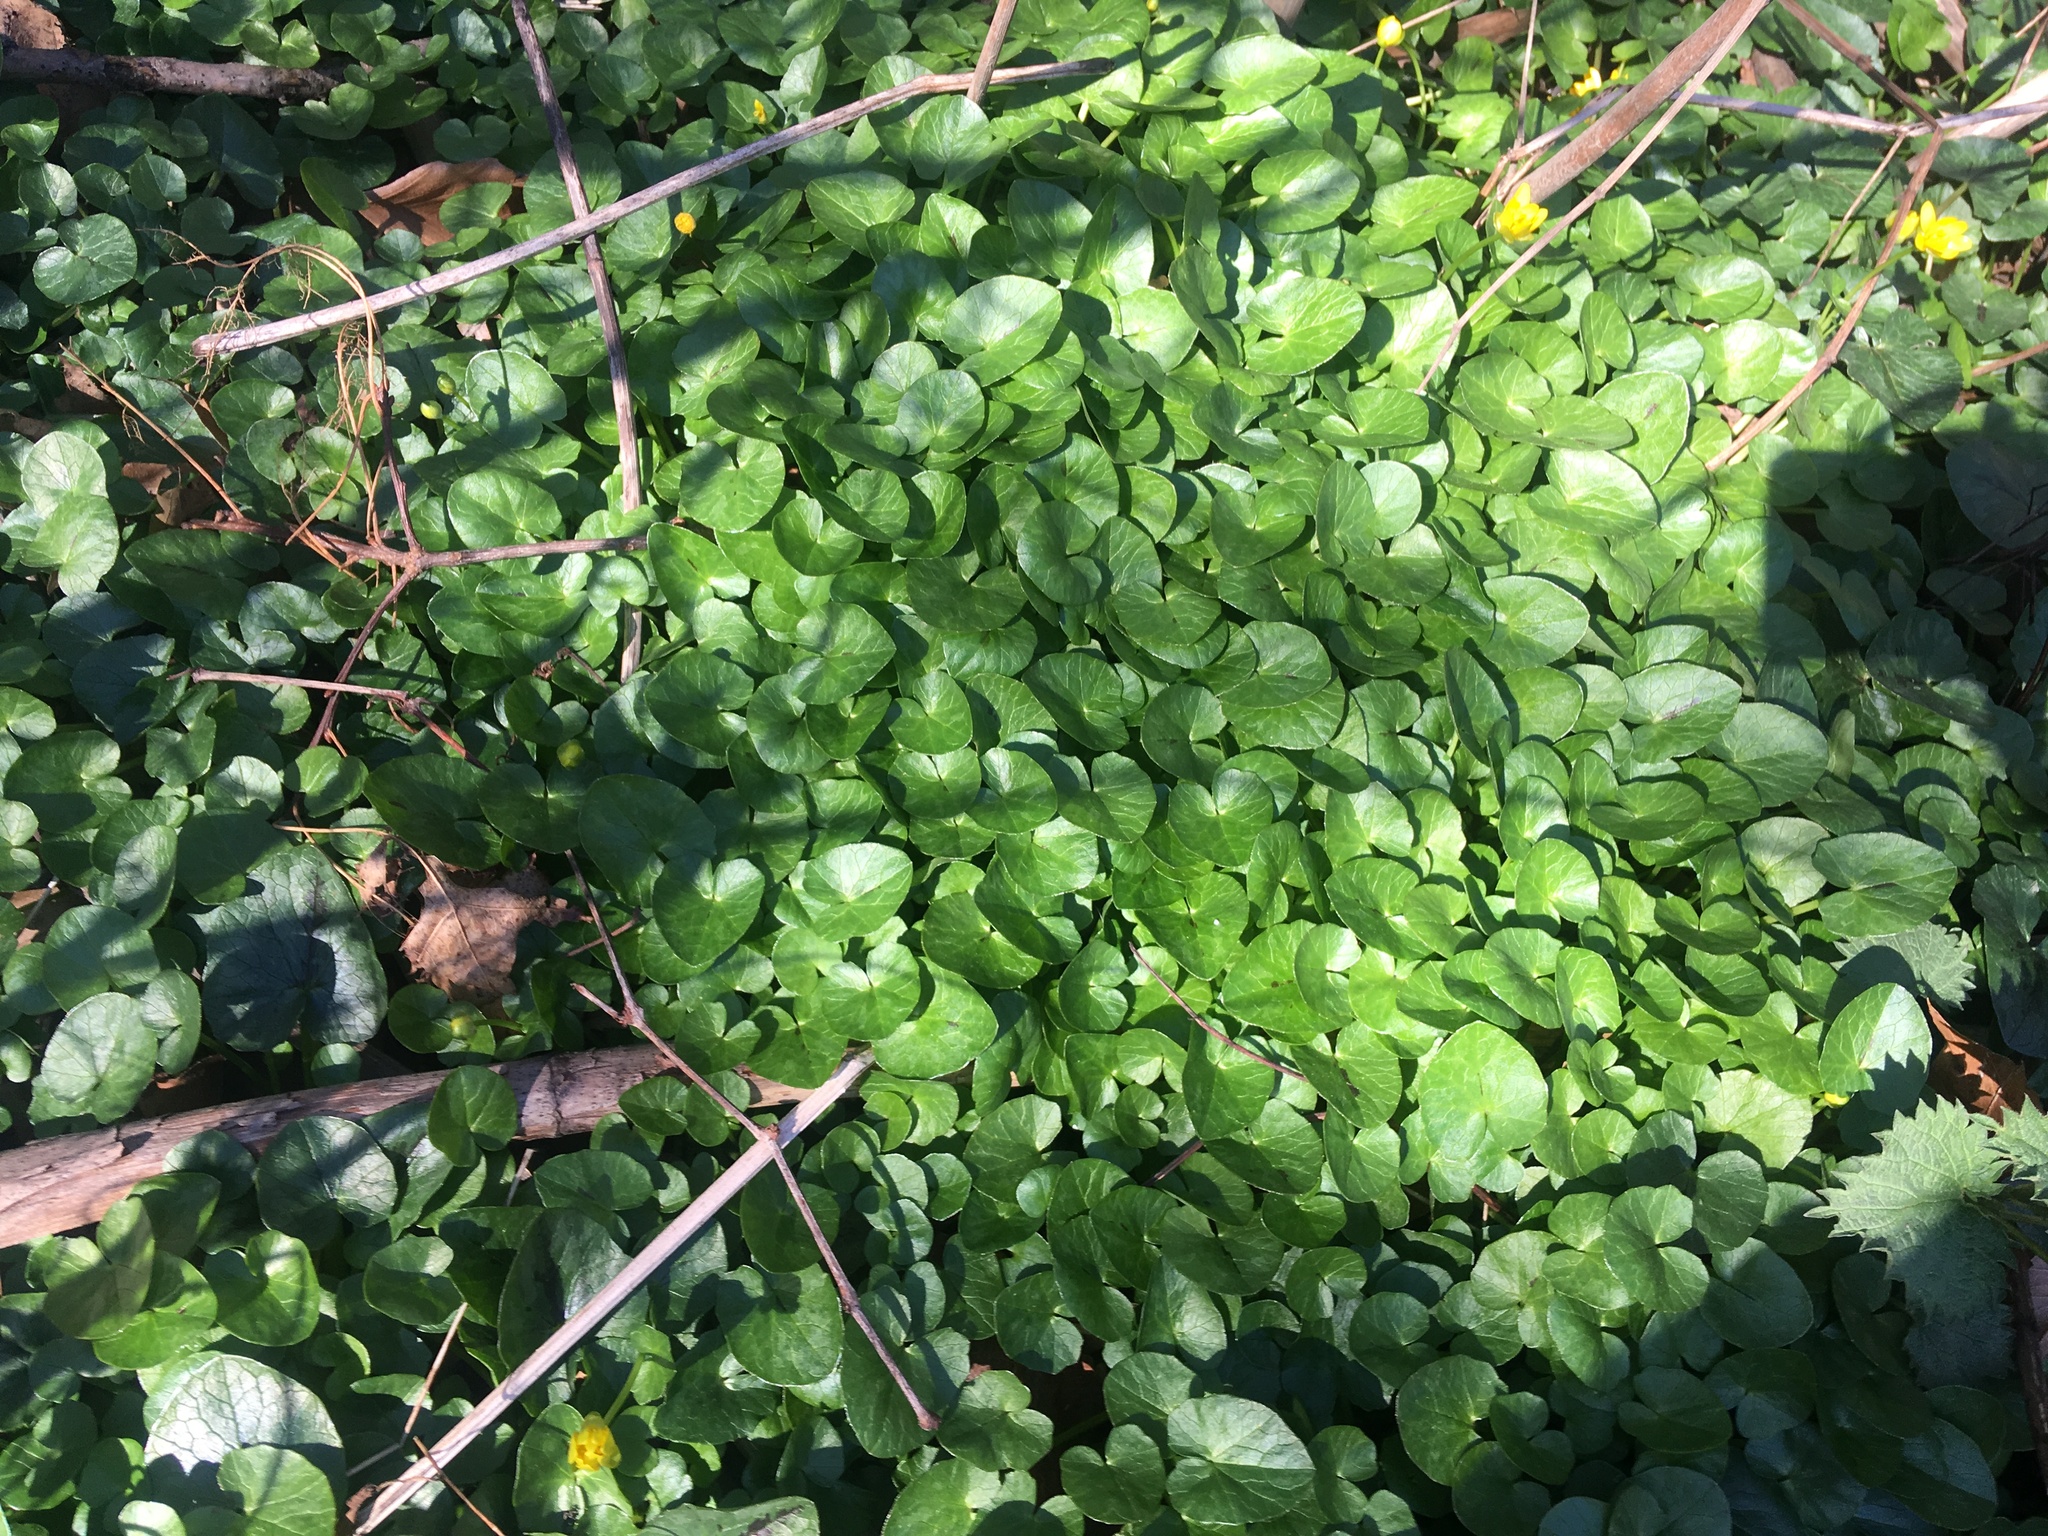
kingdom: Plantae
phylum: Tracheophyta
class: Magnoliopsida
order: Ranunculales
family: Ranunculaceae
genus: Ficaria
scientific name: Ficaria verna
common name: Lesser celandine
